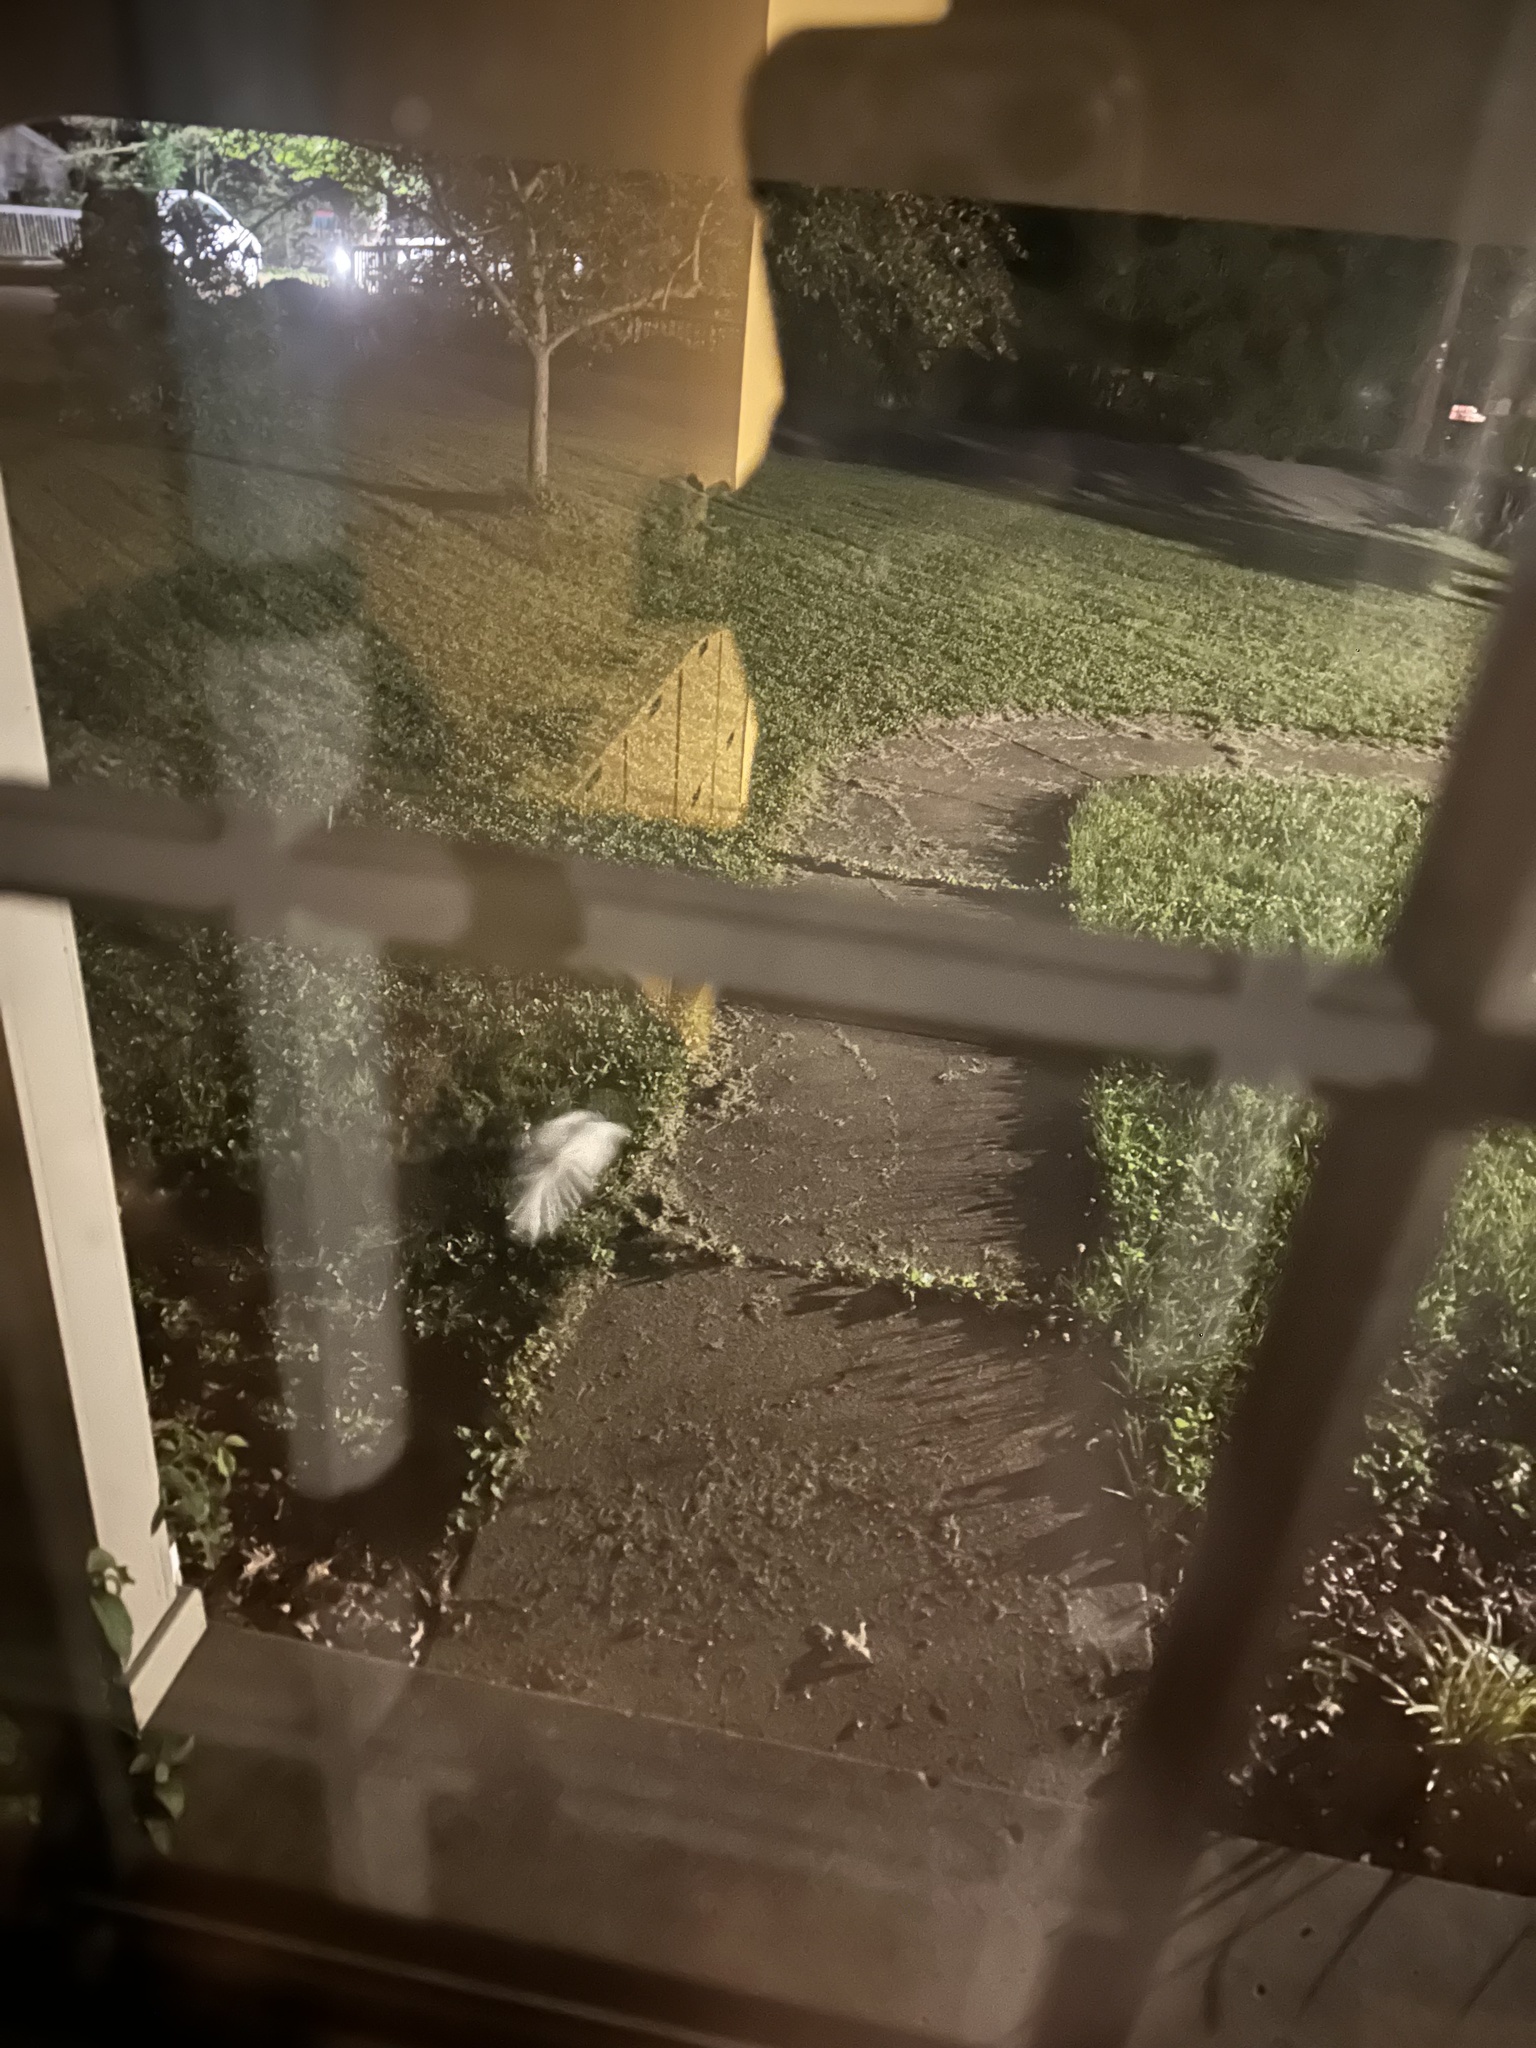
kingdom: Animalia
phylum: Chordata
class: Mammalia
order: Carnivora
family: Mephitidae
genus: Mephitis
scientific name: Mephitis mephitis
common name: Striped skunk
